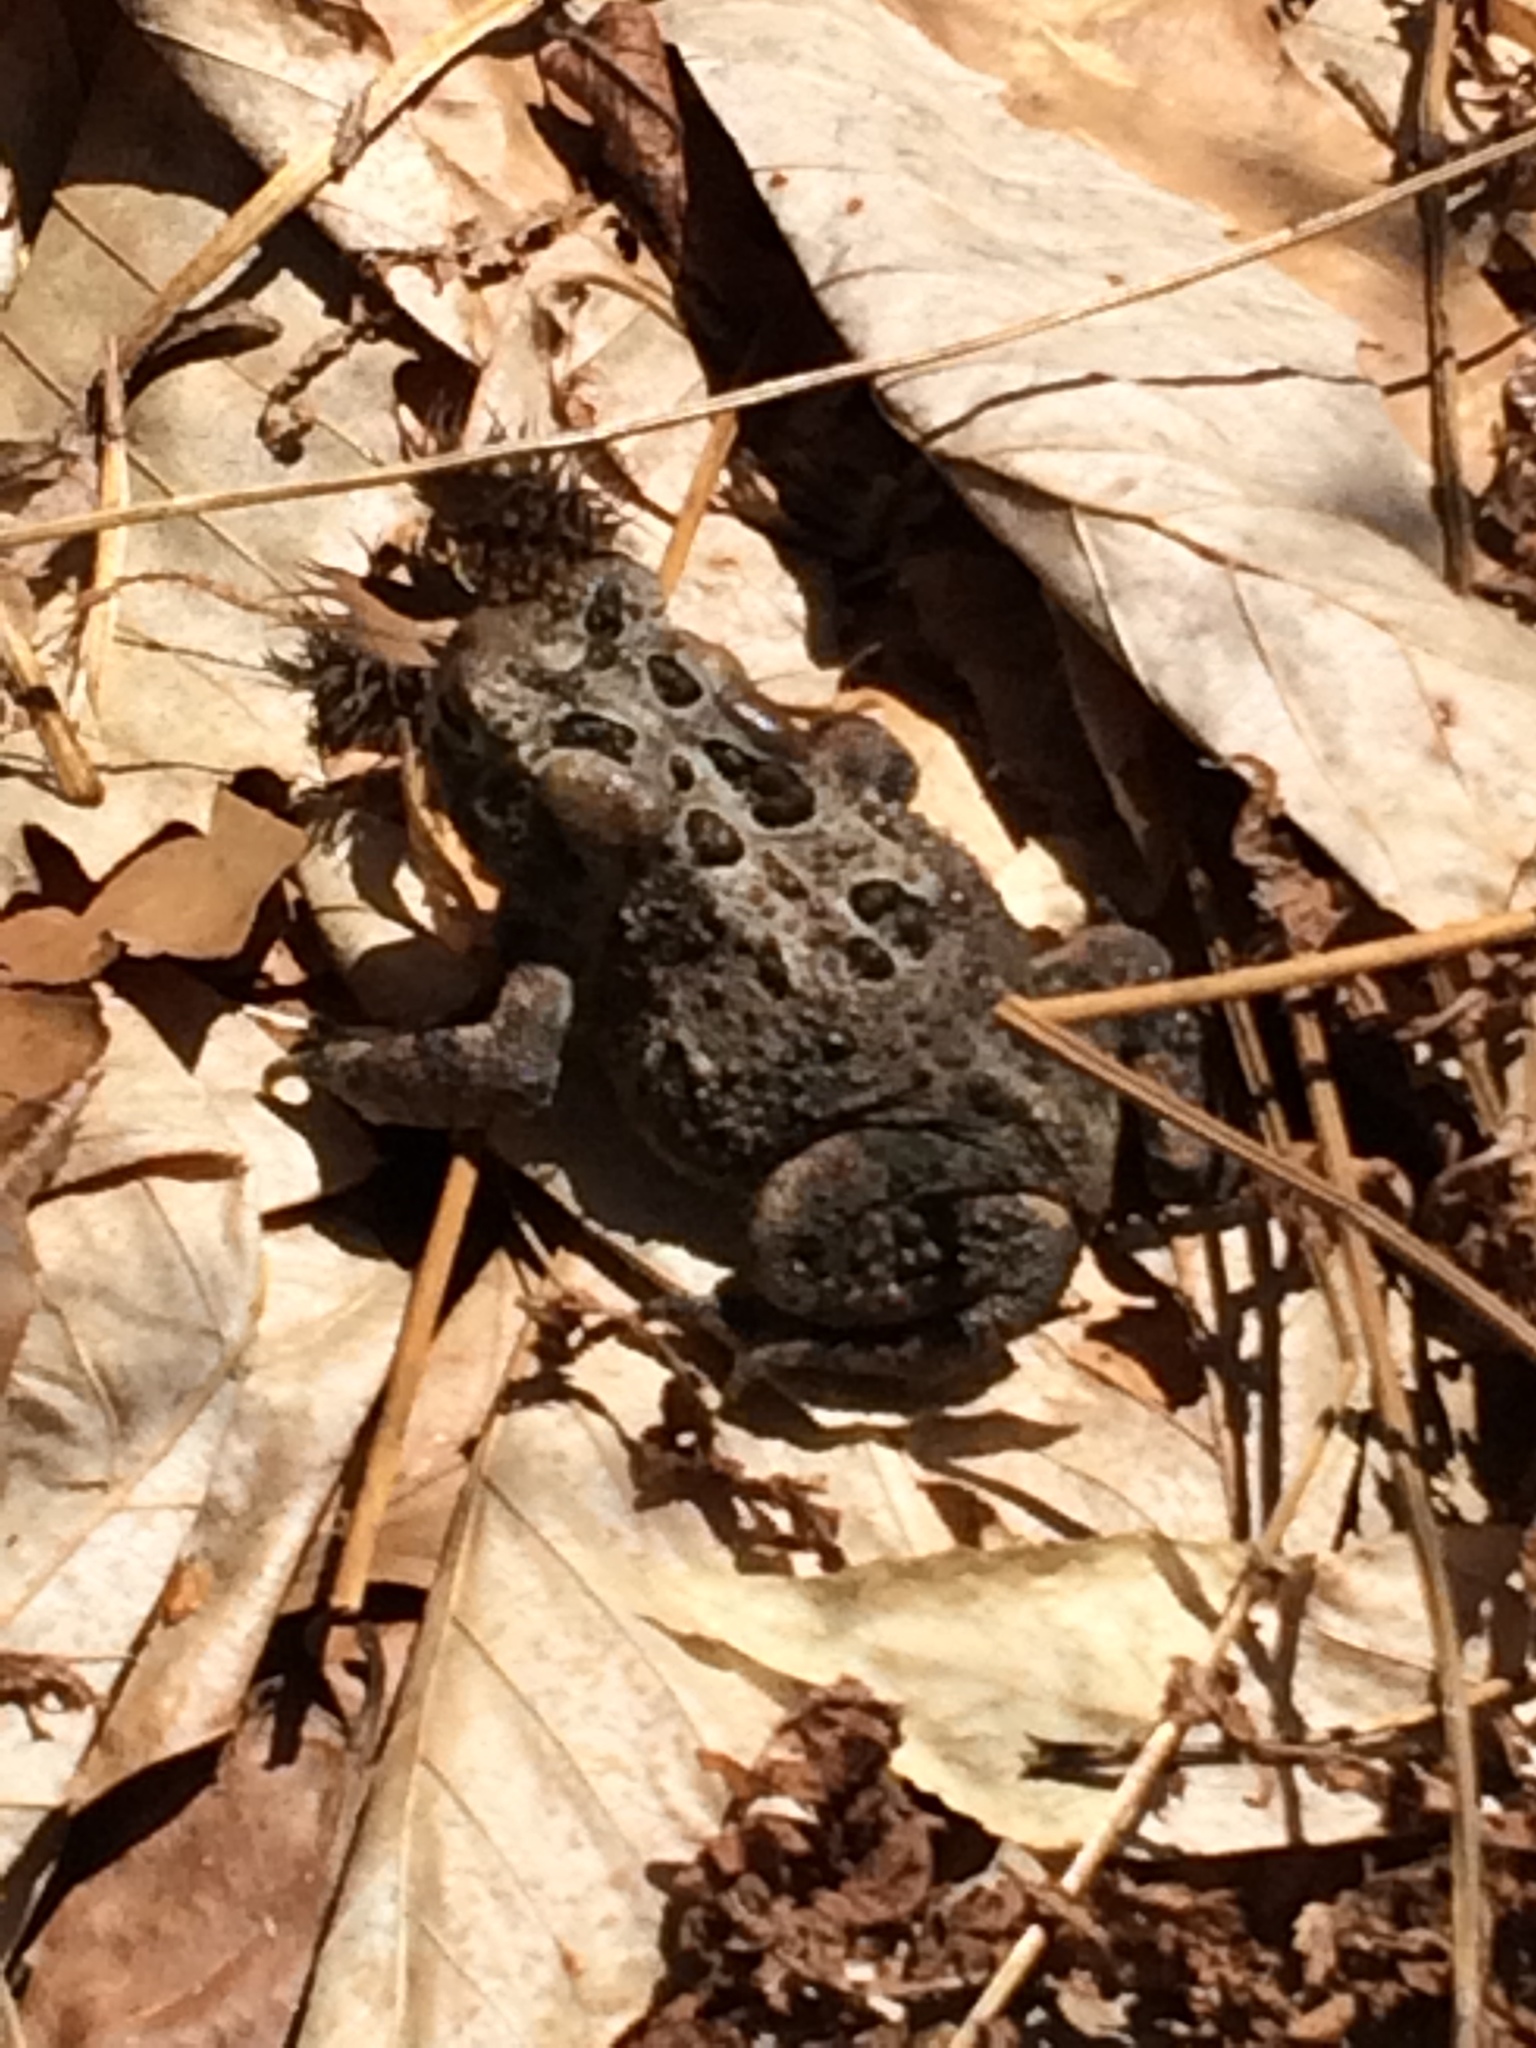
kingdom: Animalia
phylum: Chordata
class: Amphibia
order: Anura
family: Bufonidae
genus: Anaxyrus
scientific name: Anaxyrus americanus
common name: American toad
